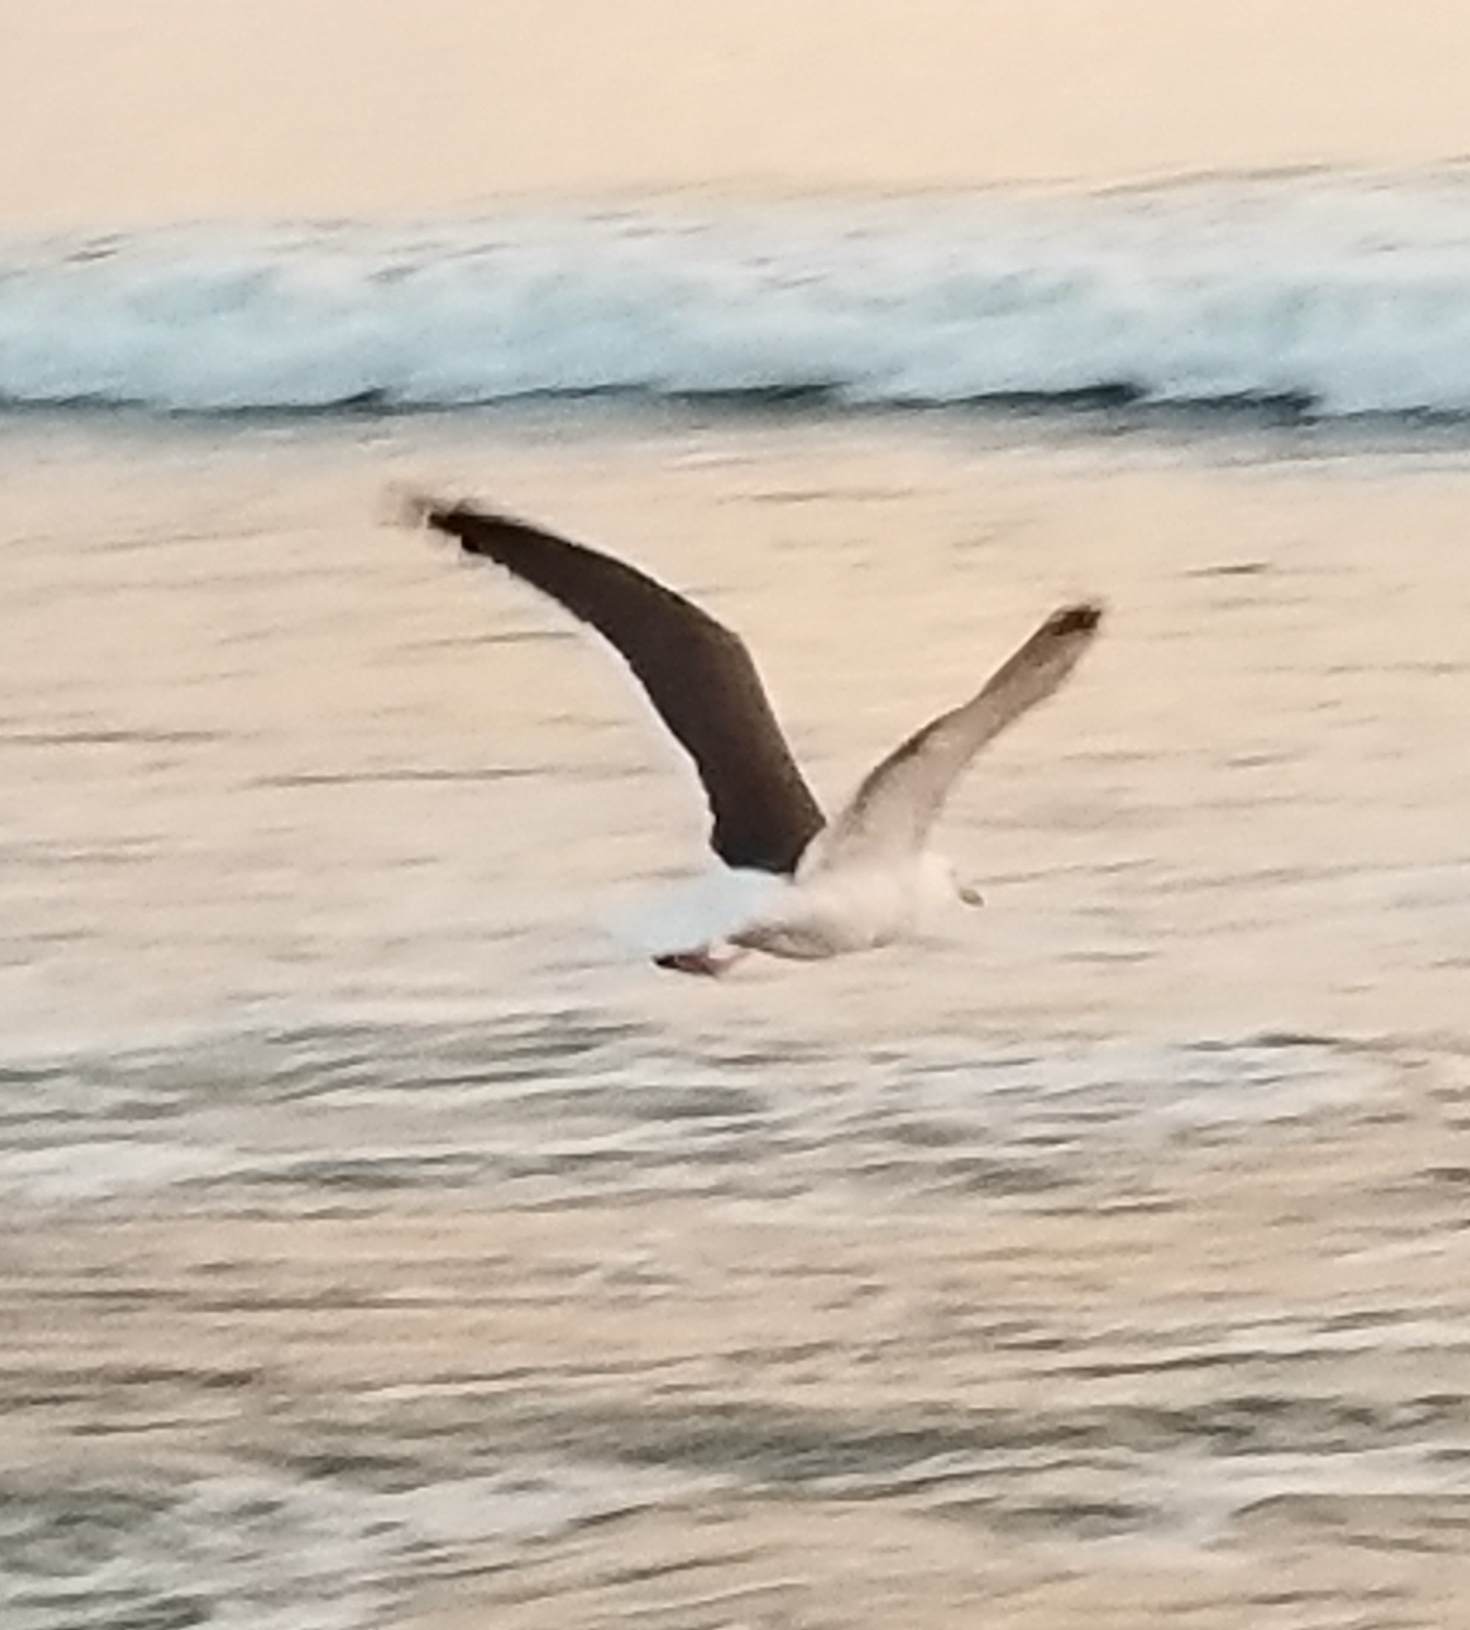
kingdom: Animalia
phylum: Chordata
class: Aves
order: Charadriiformes
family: Laridae
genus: Larus
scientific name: Larus occidentalis
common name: Western gull
